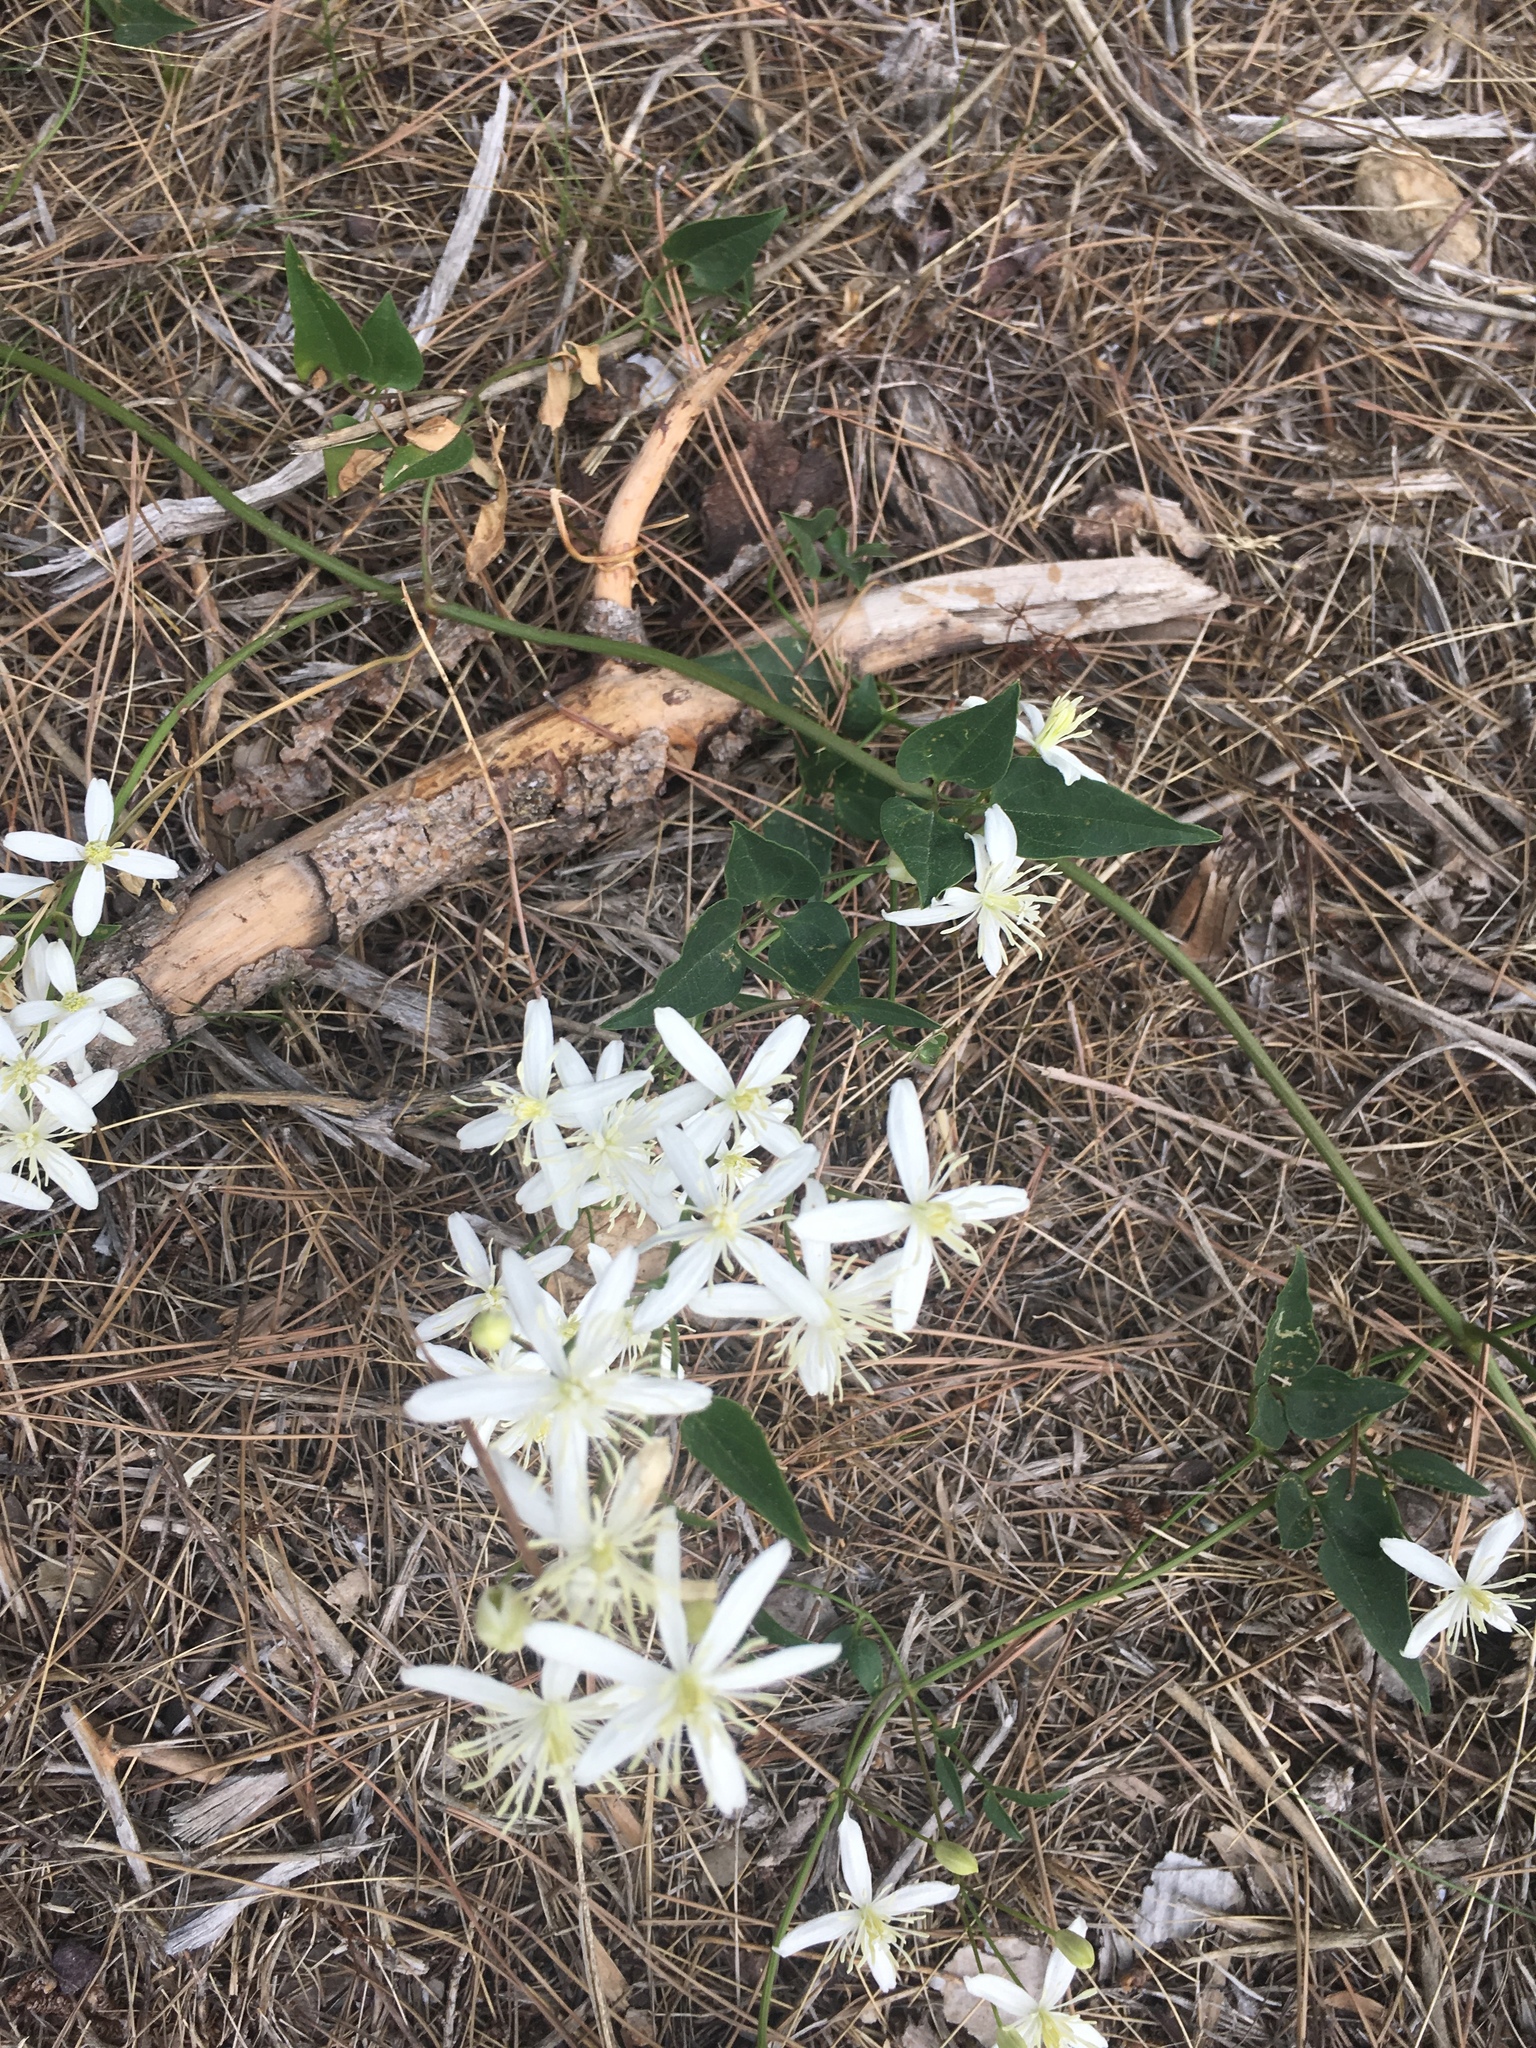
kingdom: Plantae
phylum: Tracheophyta
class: Magnoliopsida
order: Ranunculales
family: Ranunculaceae
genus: Clematis
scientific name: Clematis flammula
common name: Virgin's-bower
